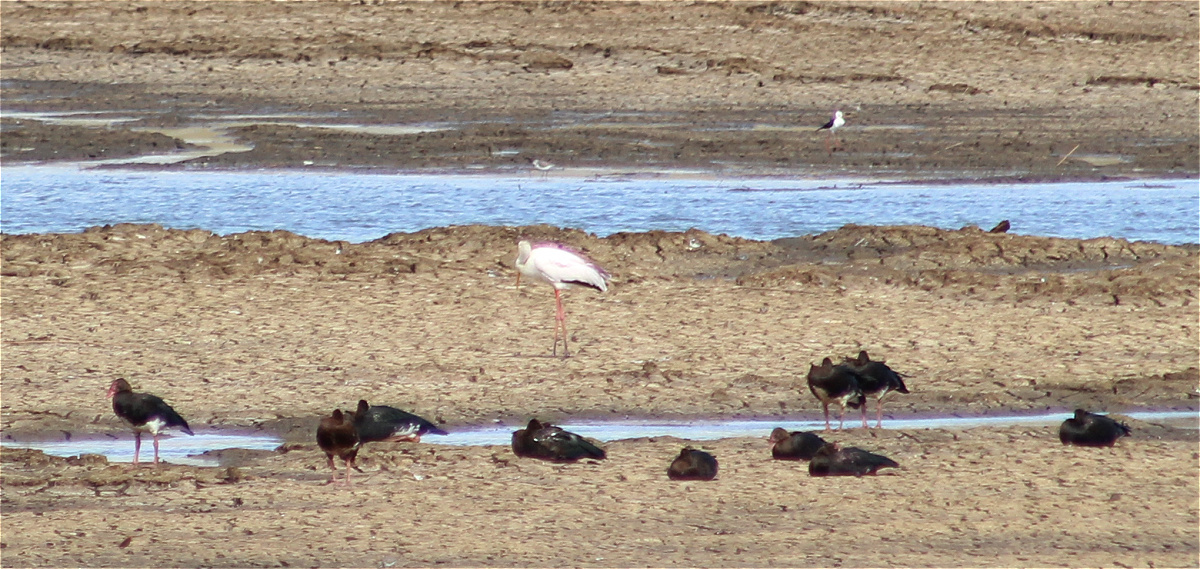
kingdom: Animalia
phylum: Chordata
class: Aves
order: Anseriformes
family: Anatidae
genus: Plectropterus
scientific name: Plectropterus gambensis
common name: Spur-winged goose
